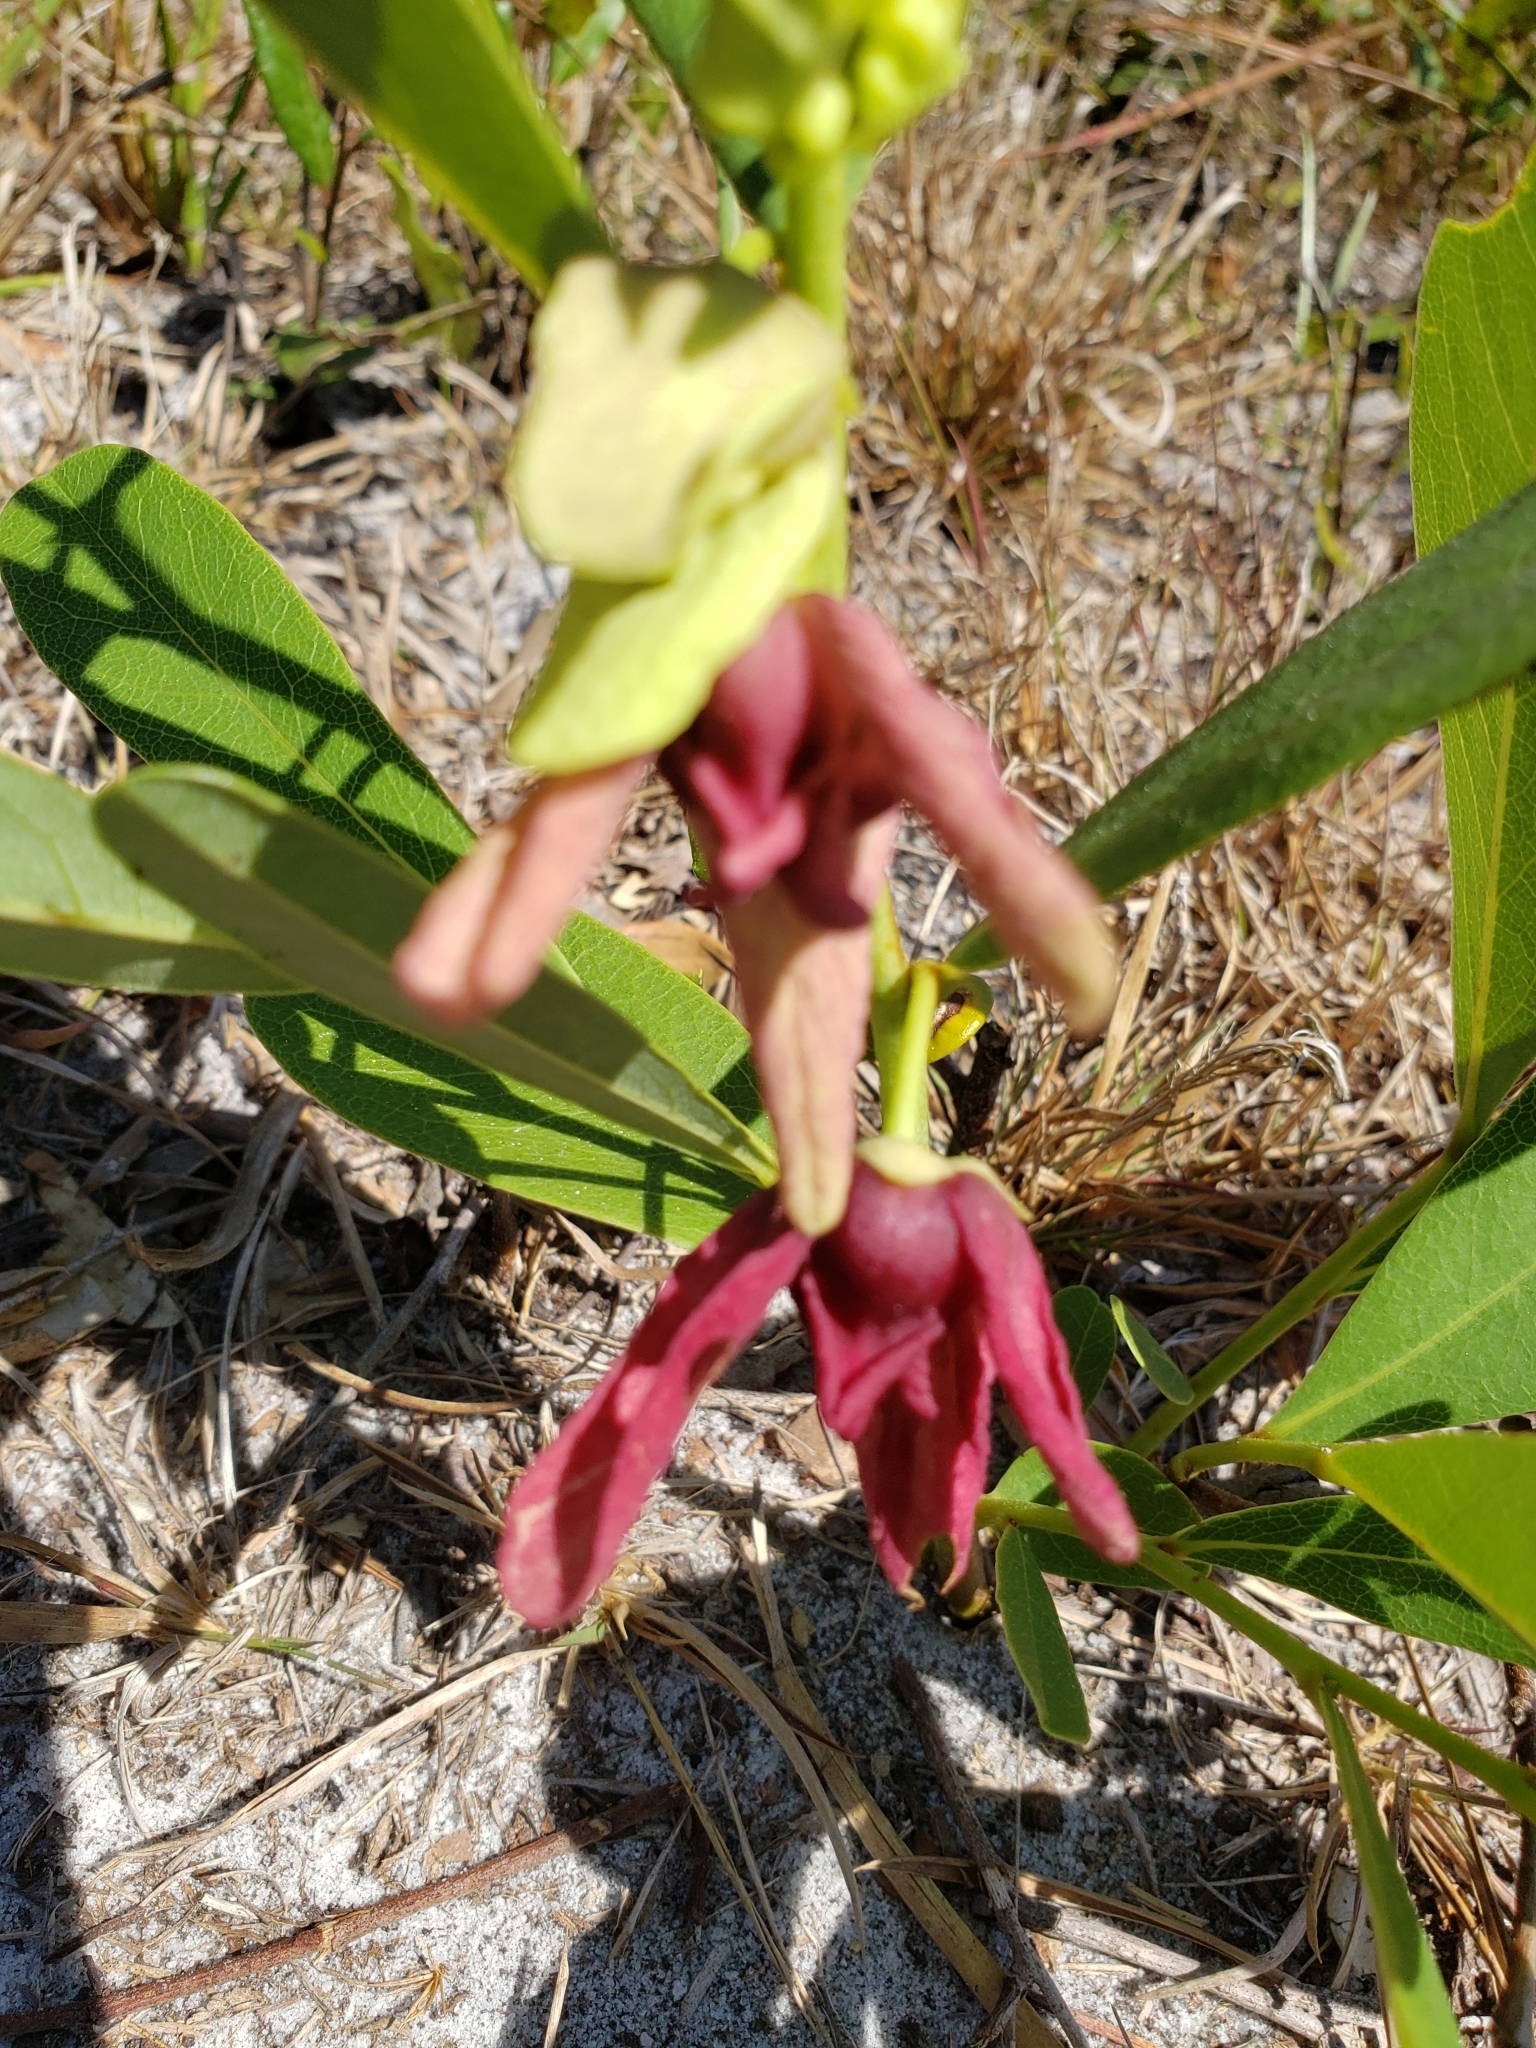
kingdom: Plantae
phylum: Tracheophyta
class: Magnoliopsida
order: Magnoliales
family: Annonaceae
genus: Asimina
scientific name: Asimina pygmaea
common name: Dwarf pawpaw
